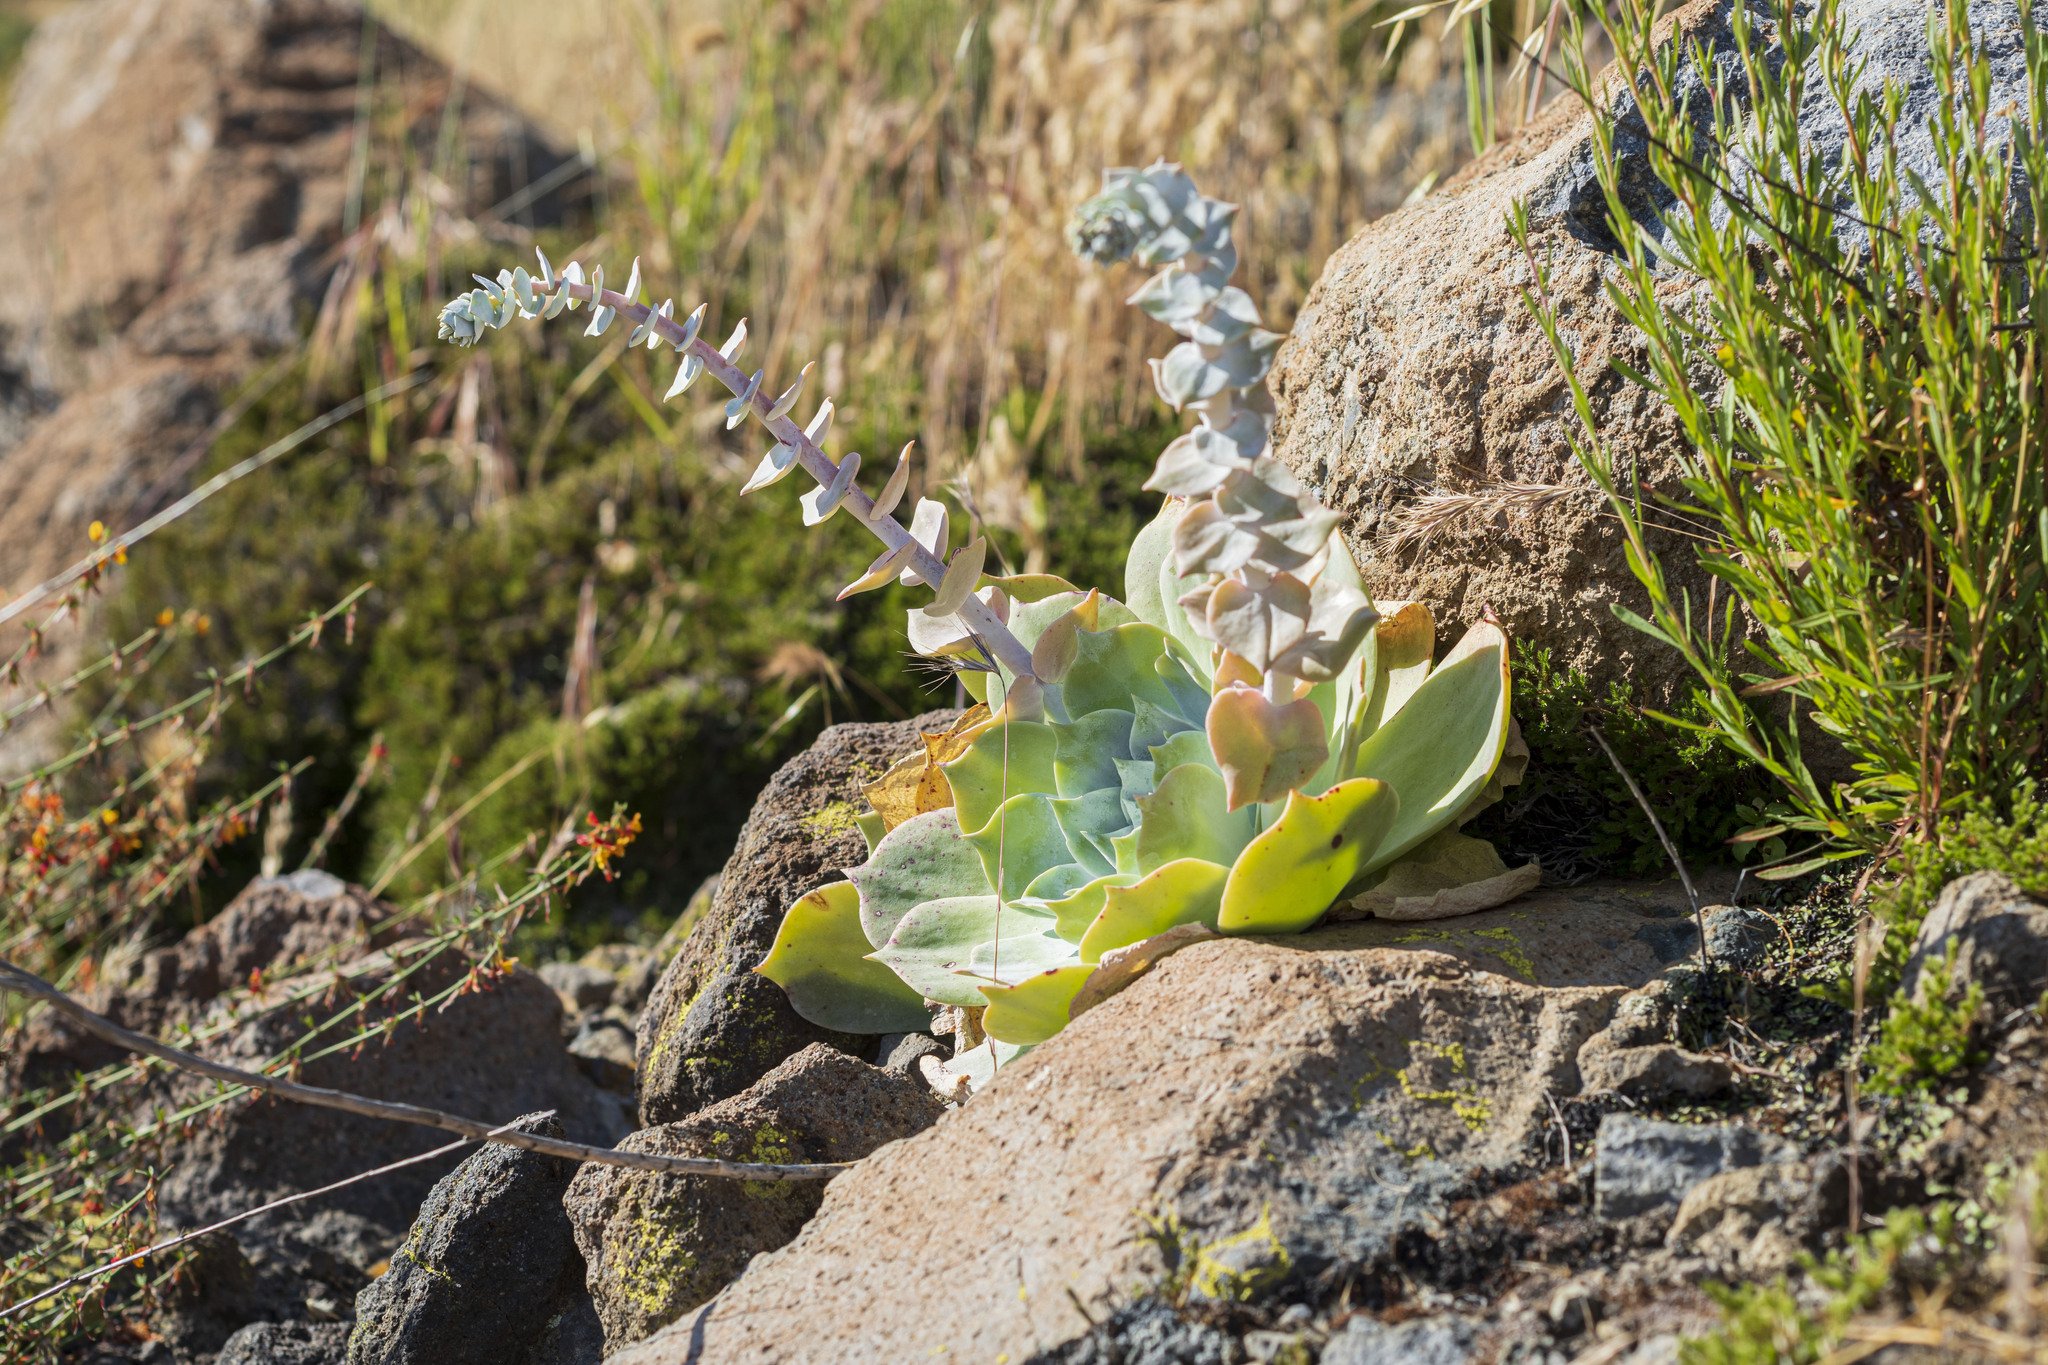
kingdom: Plantae
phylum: Tracheophyta
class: Magnoliopsida
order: Saxifragales
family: Crassulaceae
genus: Dudleya
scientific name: Dudleya pulverulenta
